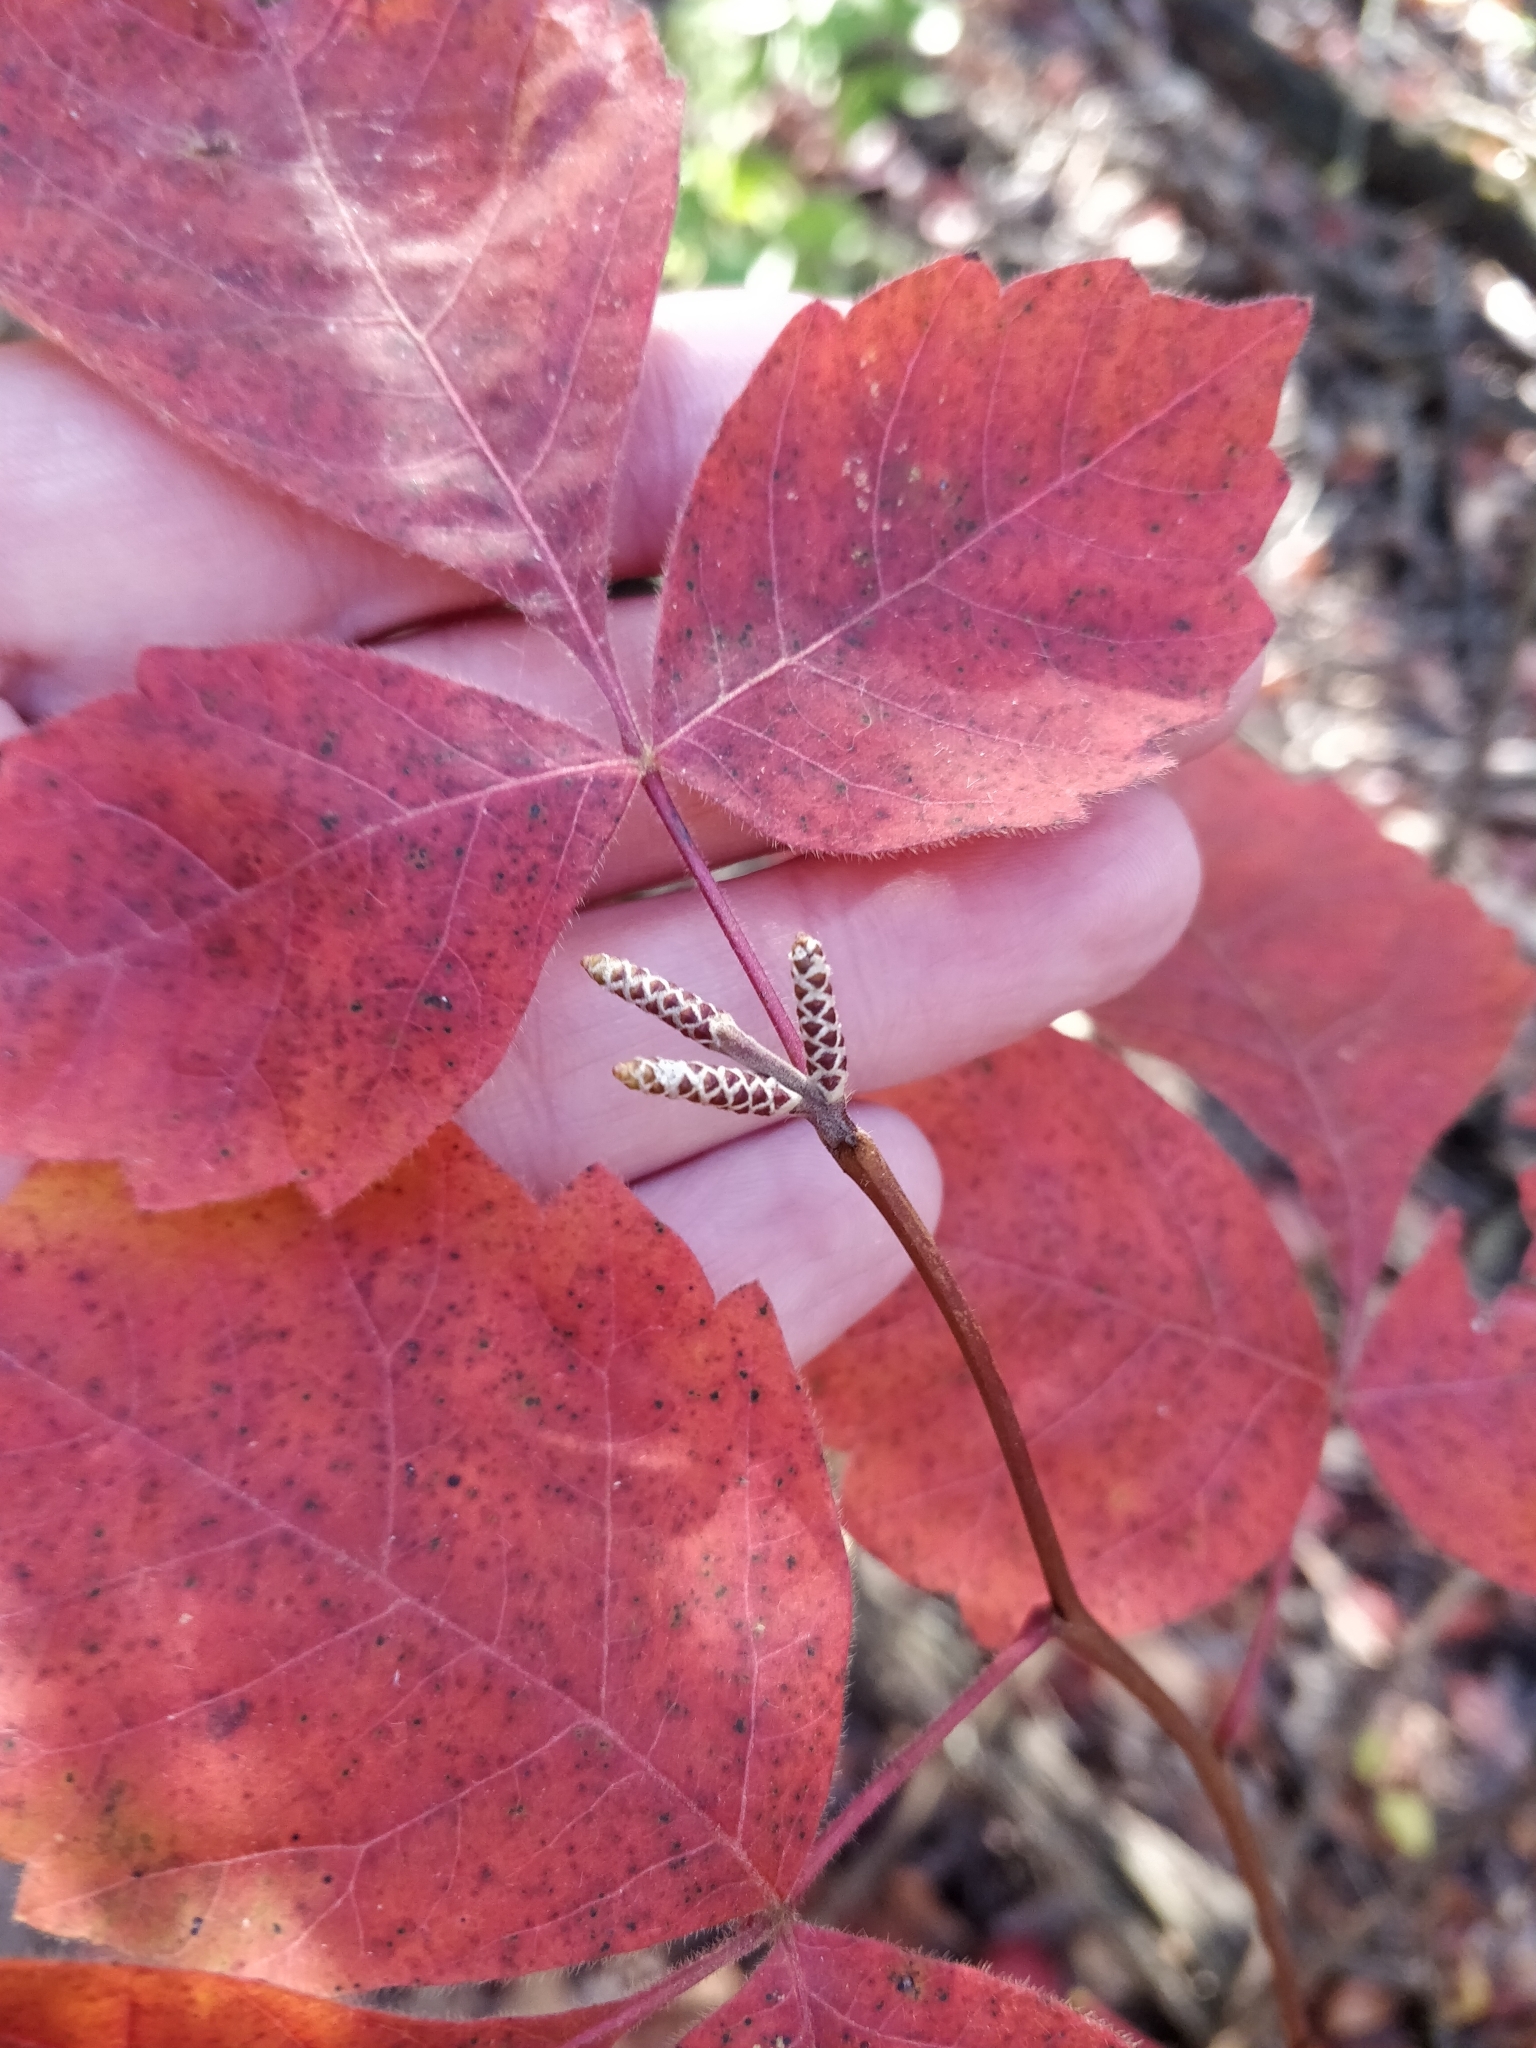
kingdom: Plantae
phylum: Tracheophyta
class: Magnoliopsida
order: Sapindales
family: Anacardiaceae
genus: Rhus
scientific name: Rhus aromatica
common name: Aromatic sumac
